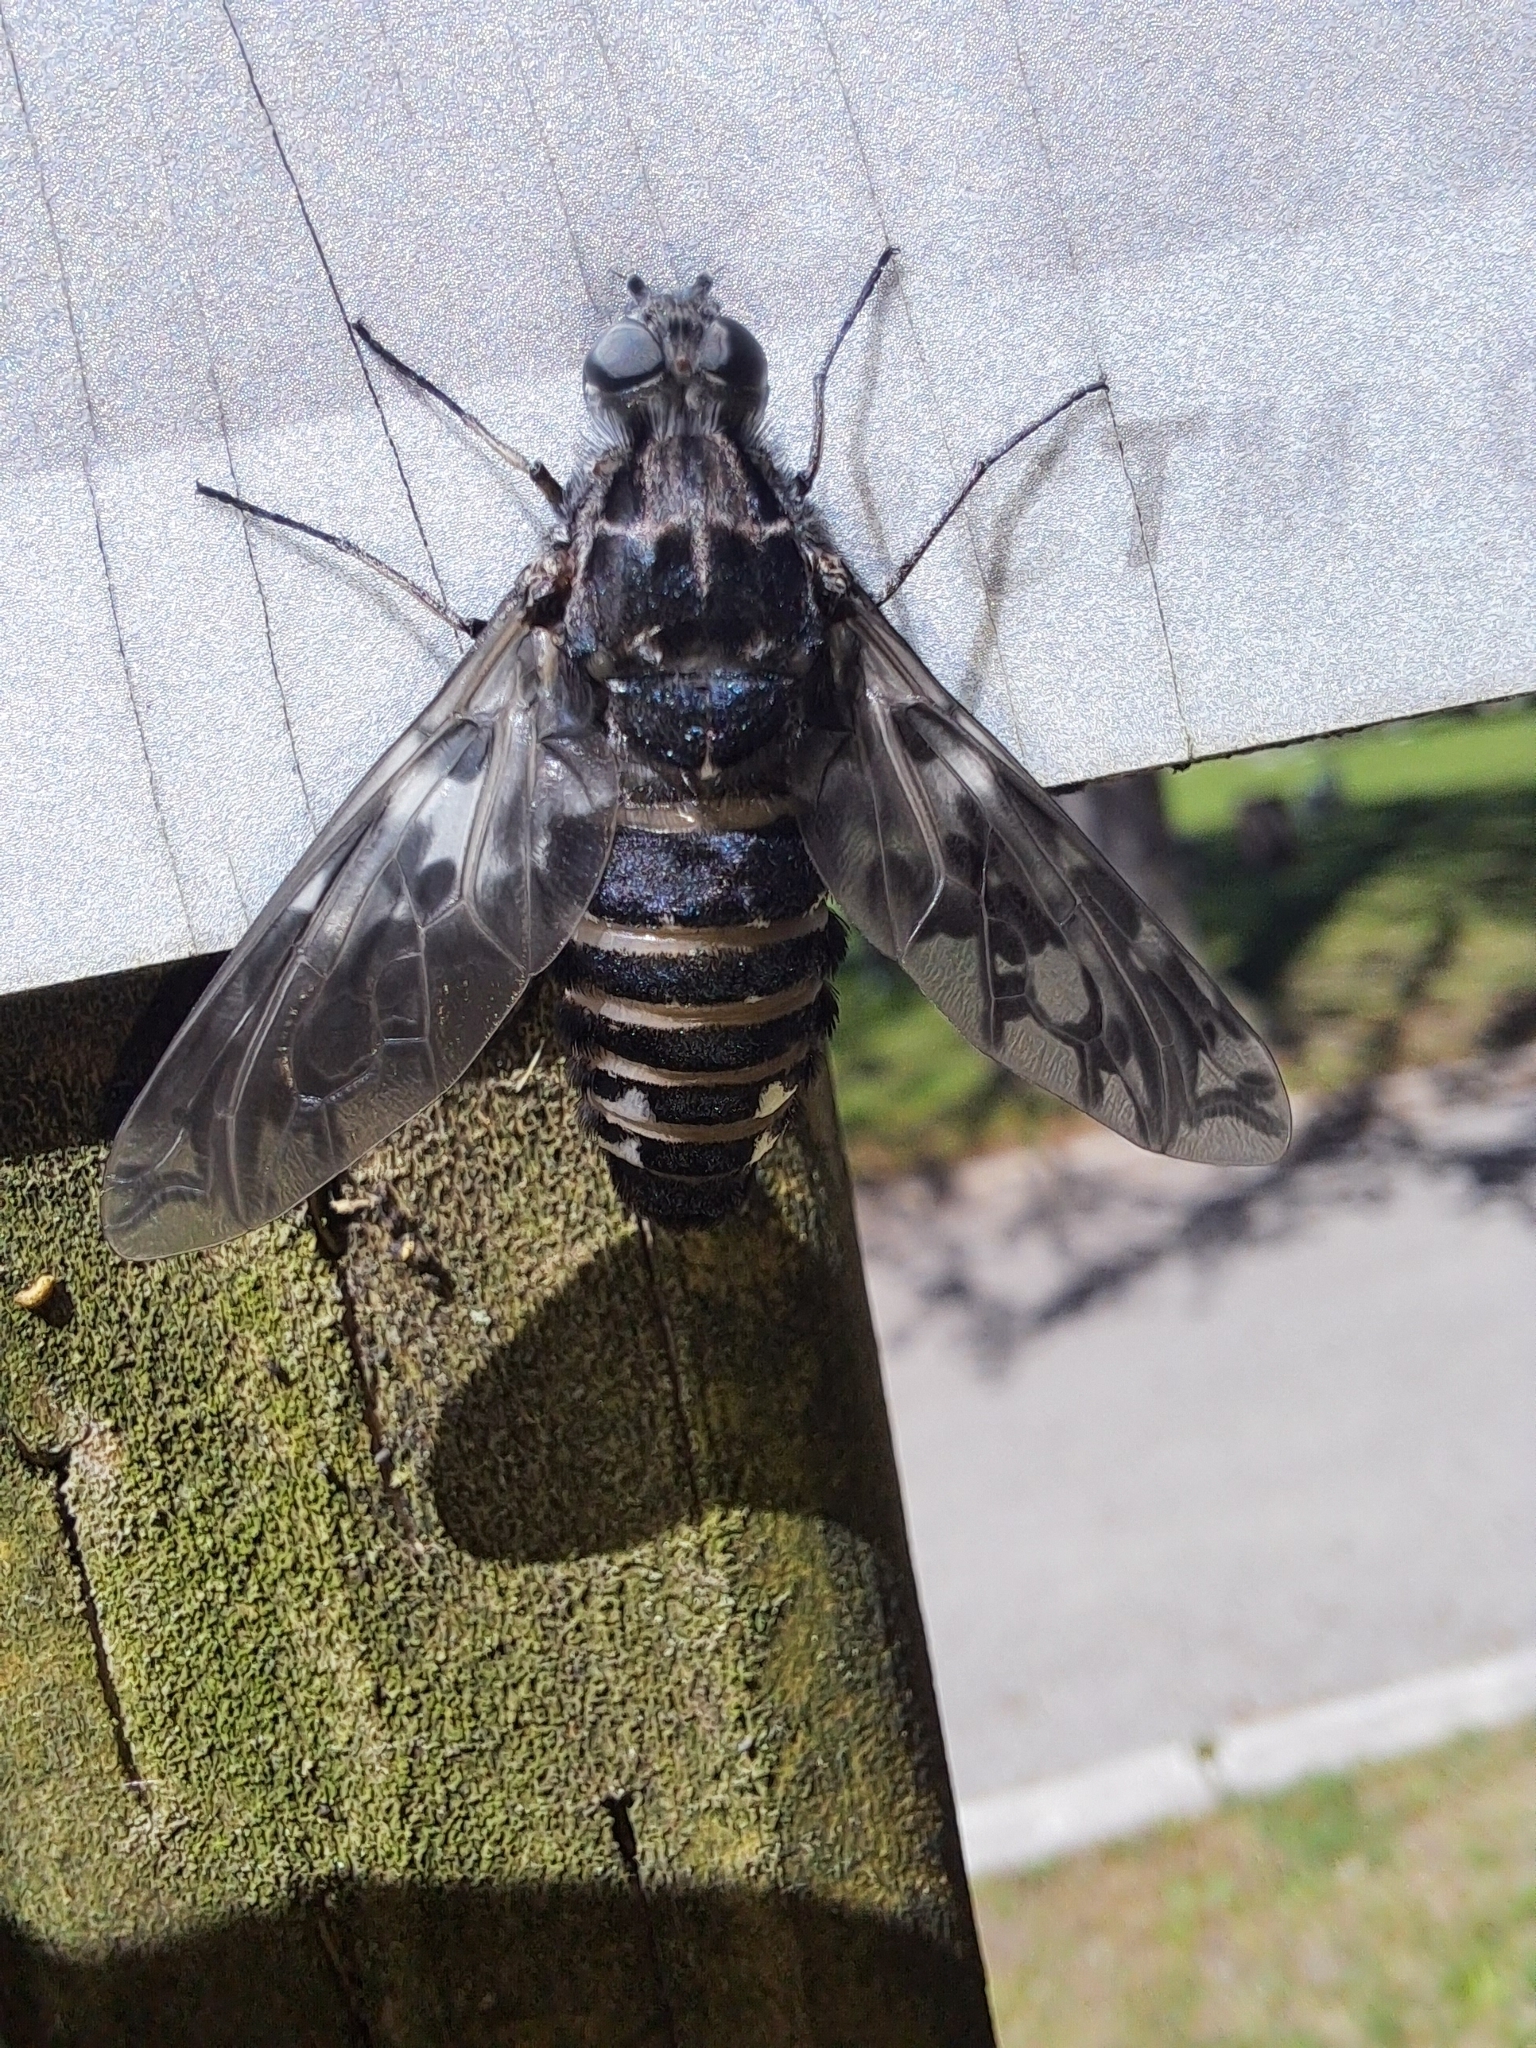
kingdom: Animalia
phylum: Arthropoda
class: Insecta
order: Diptera
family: Bombyliidae
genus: Xenox
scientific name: Xenox tigrinus
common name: Tiger bee fly
